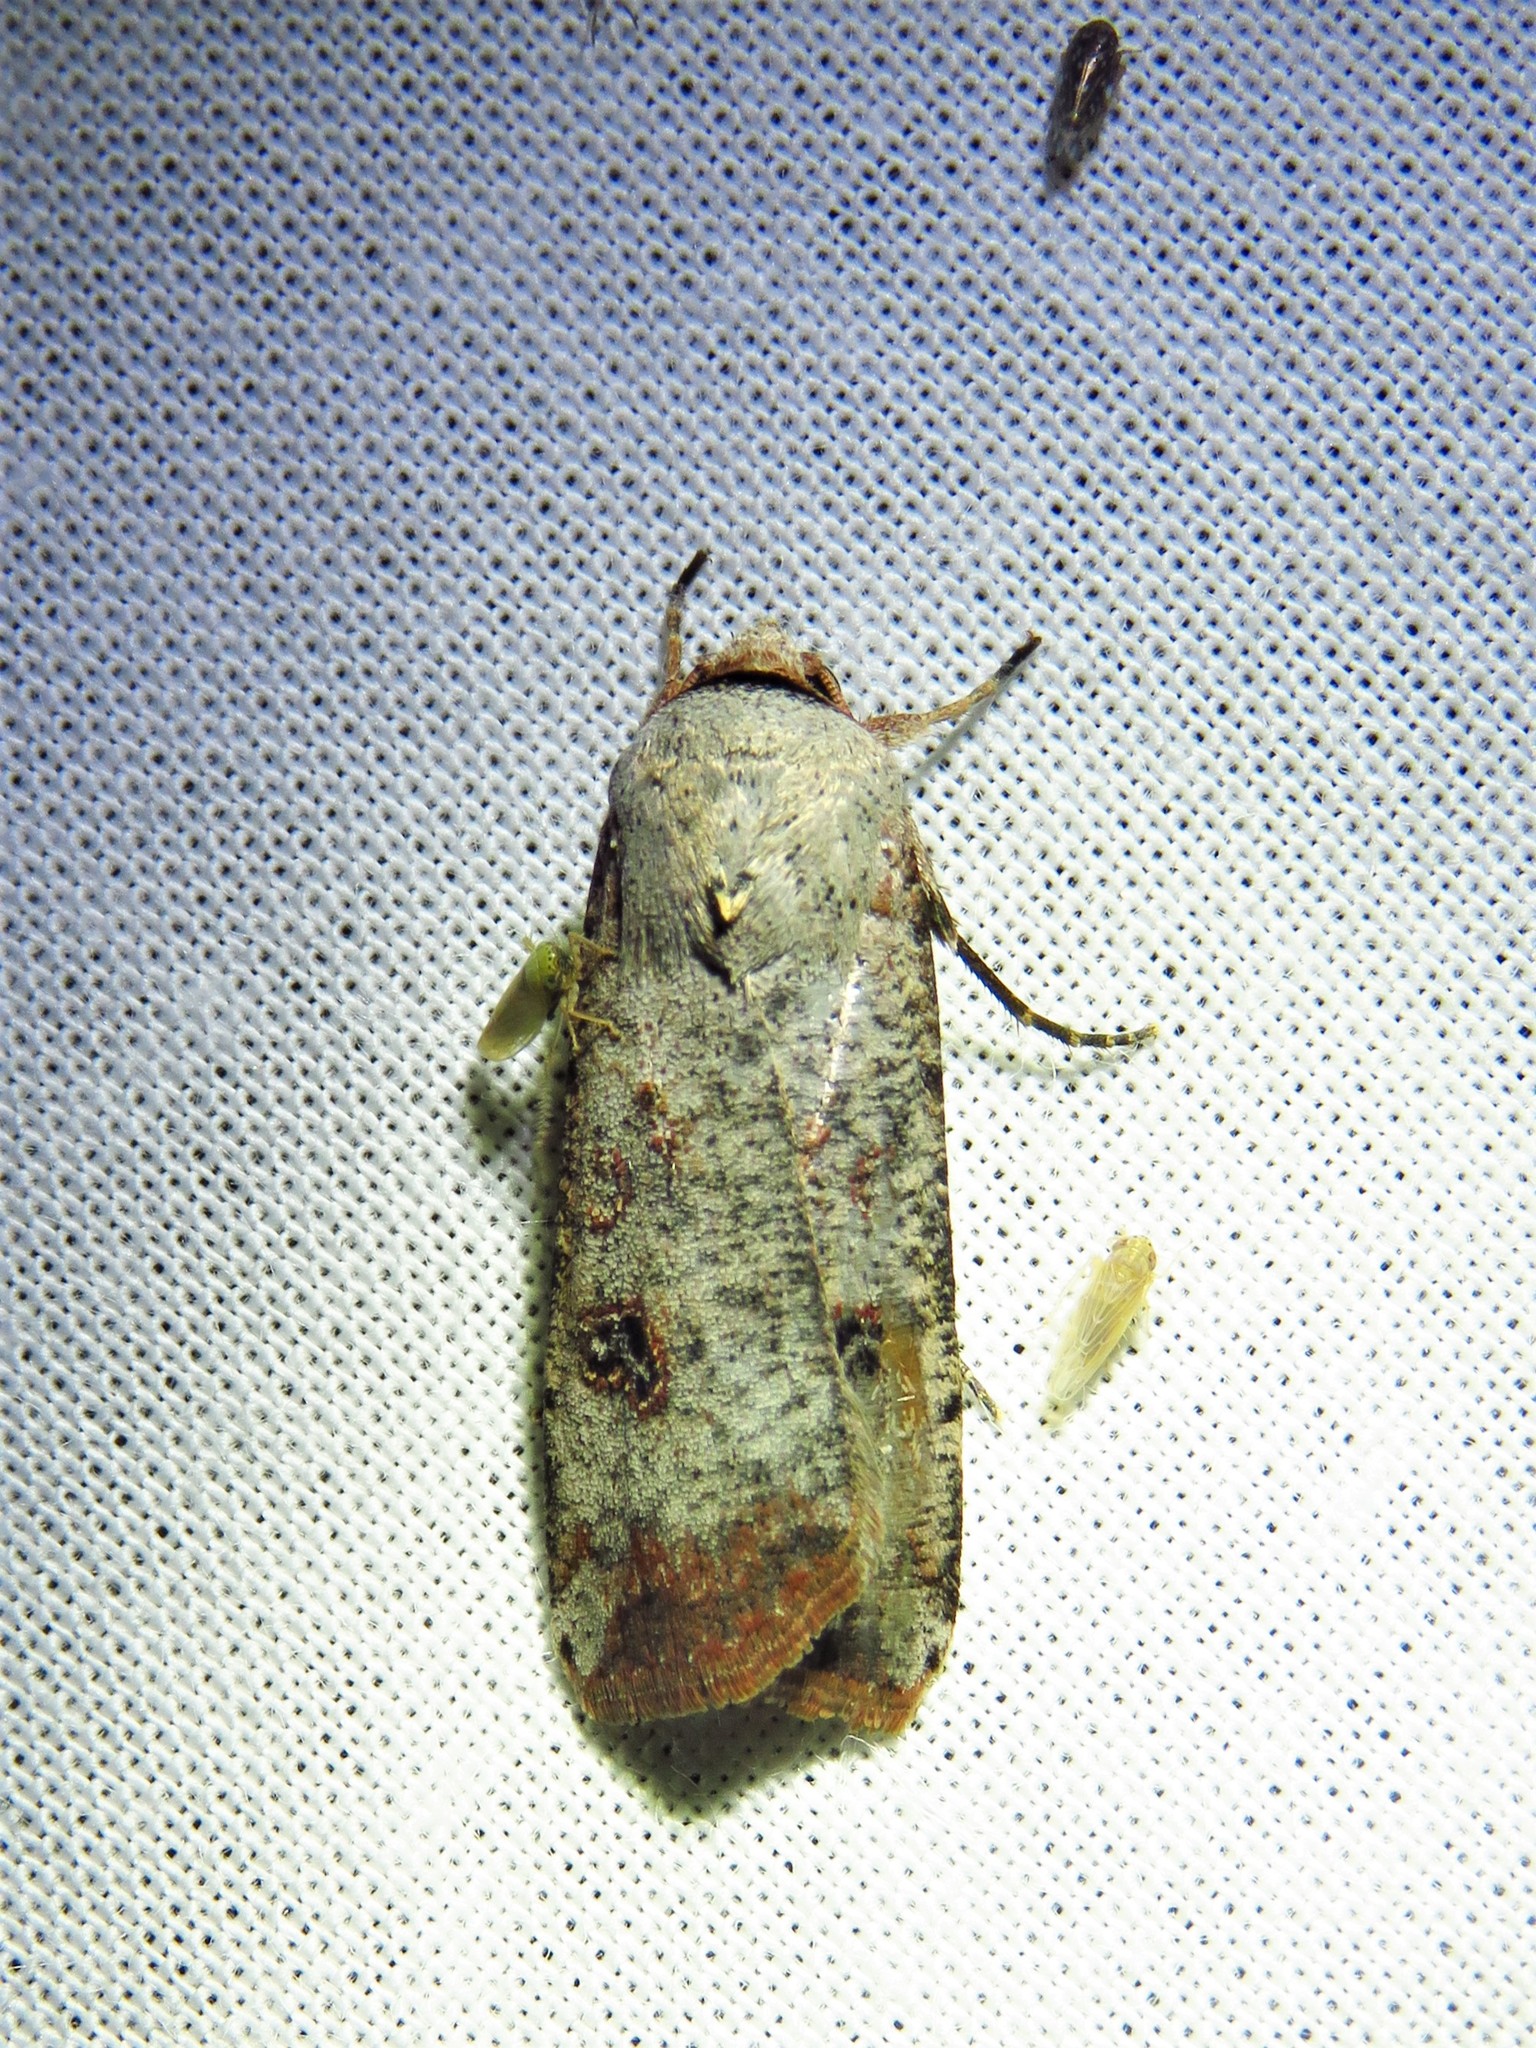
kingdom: Animalia
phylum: Arthropoda
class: Insecta
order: Lepidoptera
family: Noctuidae
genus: Anicla
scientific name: Anicla infecta
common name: Green cutworm
